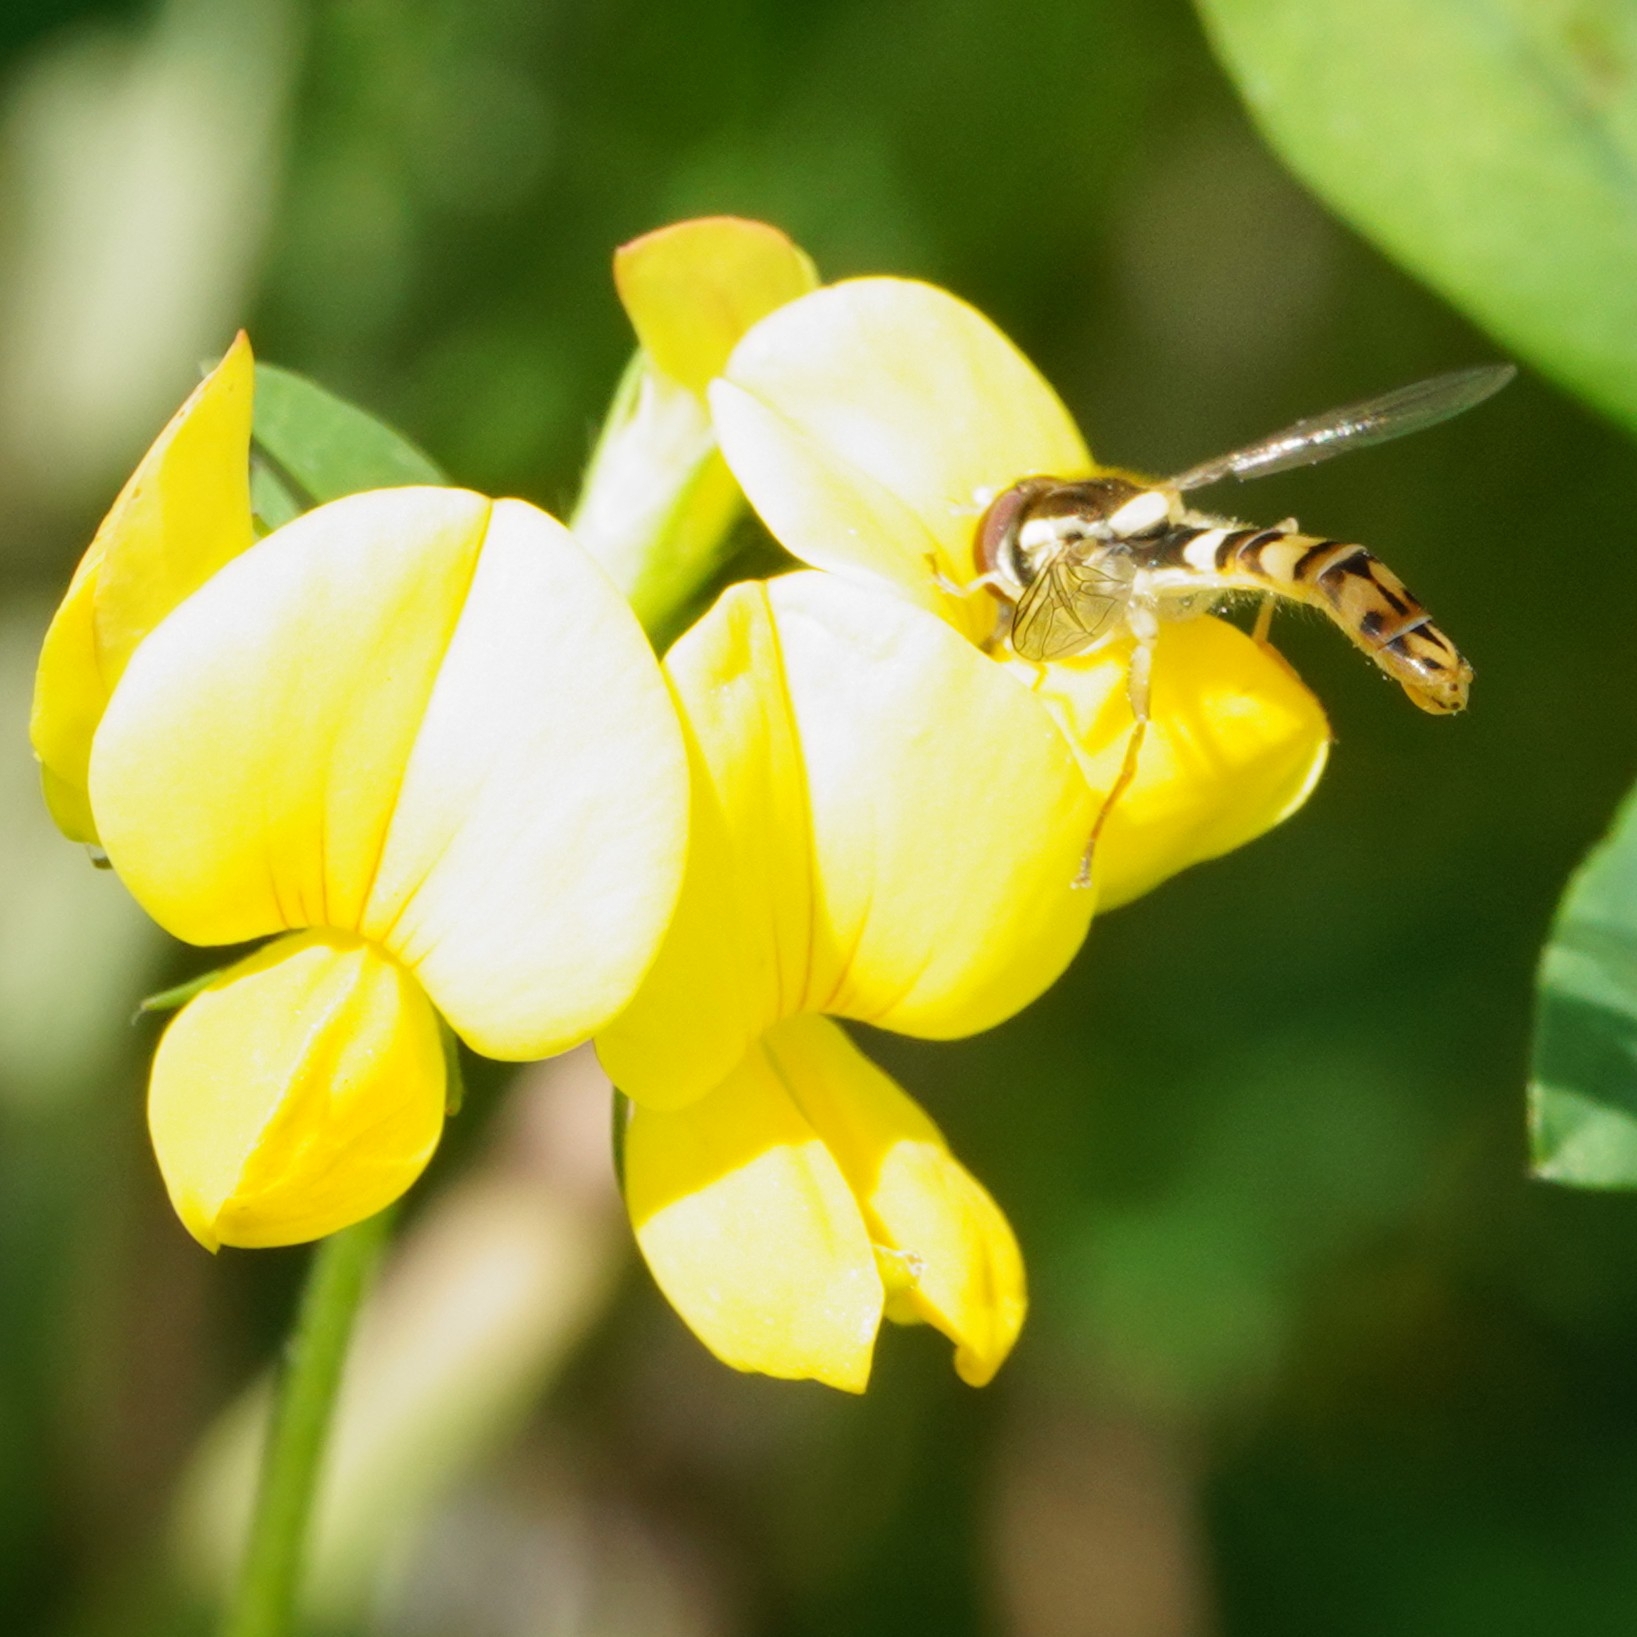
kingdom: Animalia
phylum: Arthropoda
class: Insecta
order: Diptera
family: Syrphidae
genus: Sphaerophoria
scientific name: Sphaerophoria
